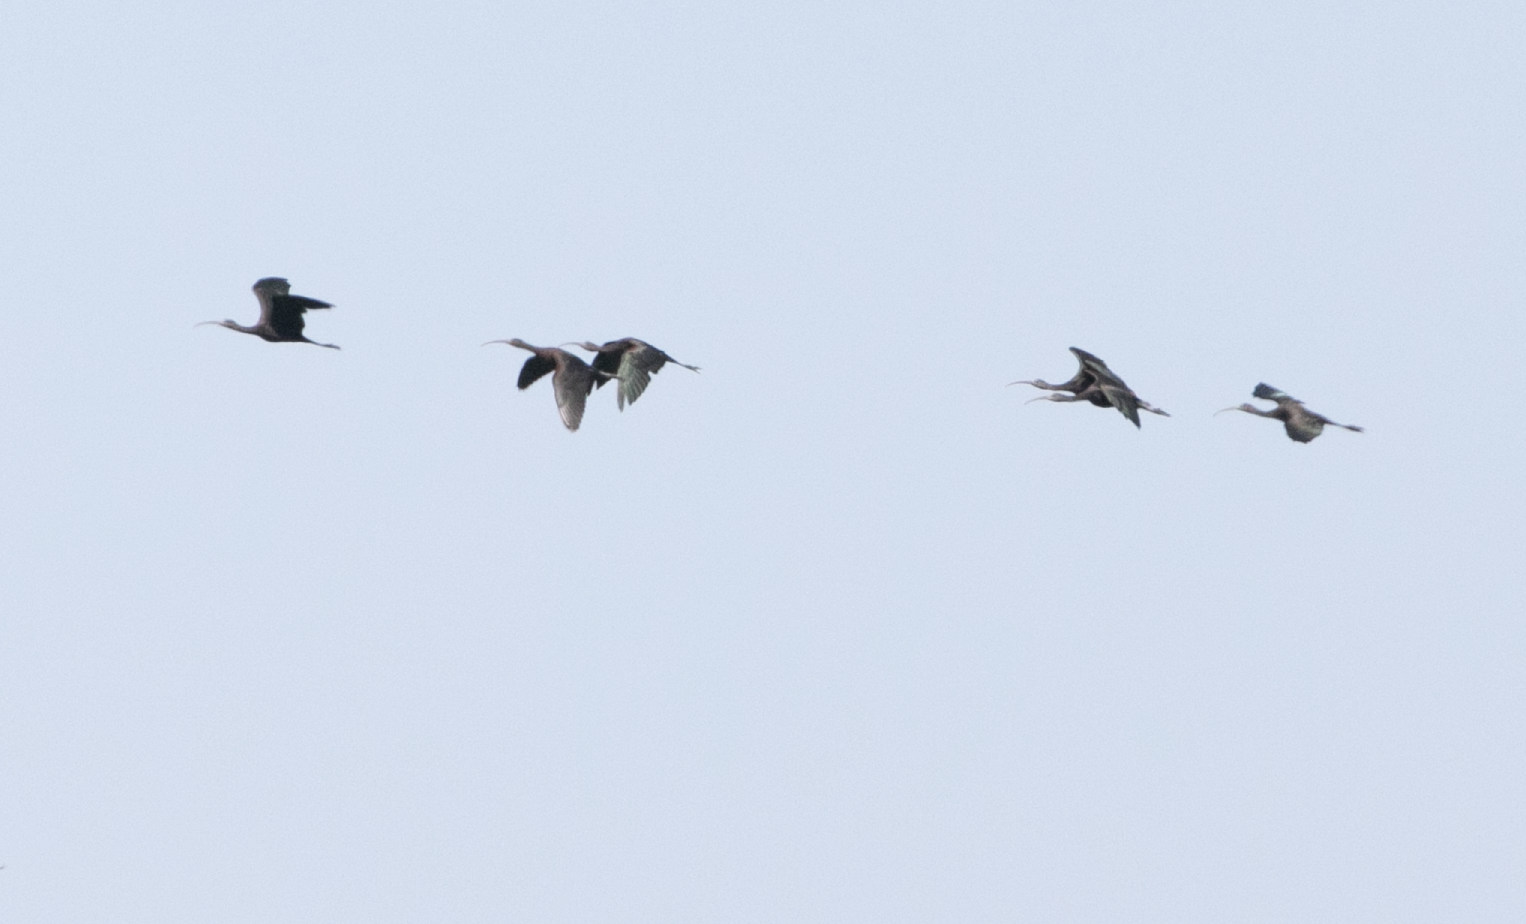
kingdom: Animalia
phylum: Chordata
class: Aves
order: Pelecaniformes
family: Threskiornithidae
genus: Plegadis
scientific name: Plegadis falcinellus
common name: Glossy ibis
